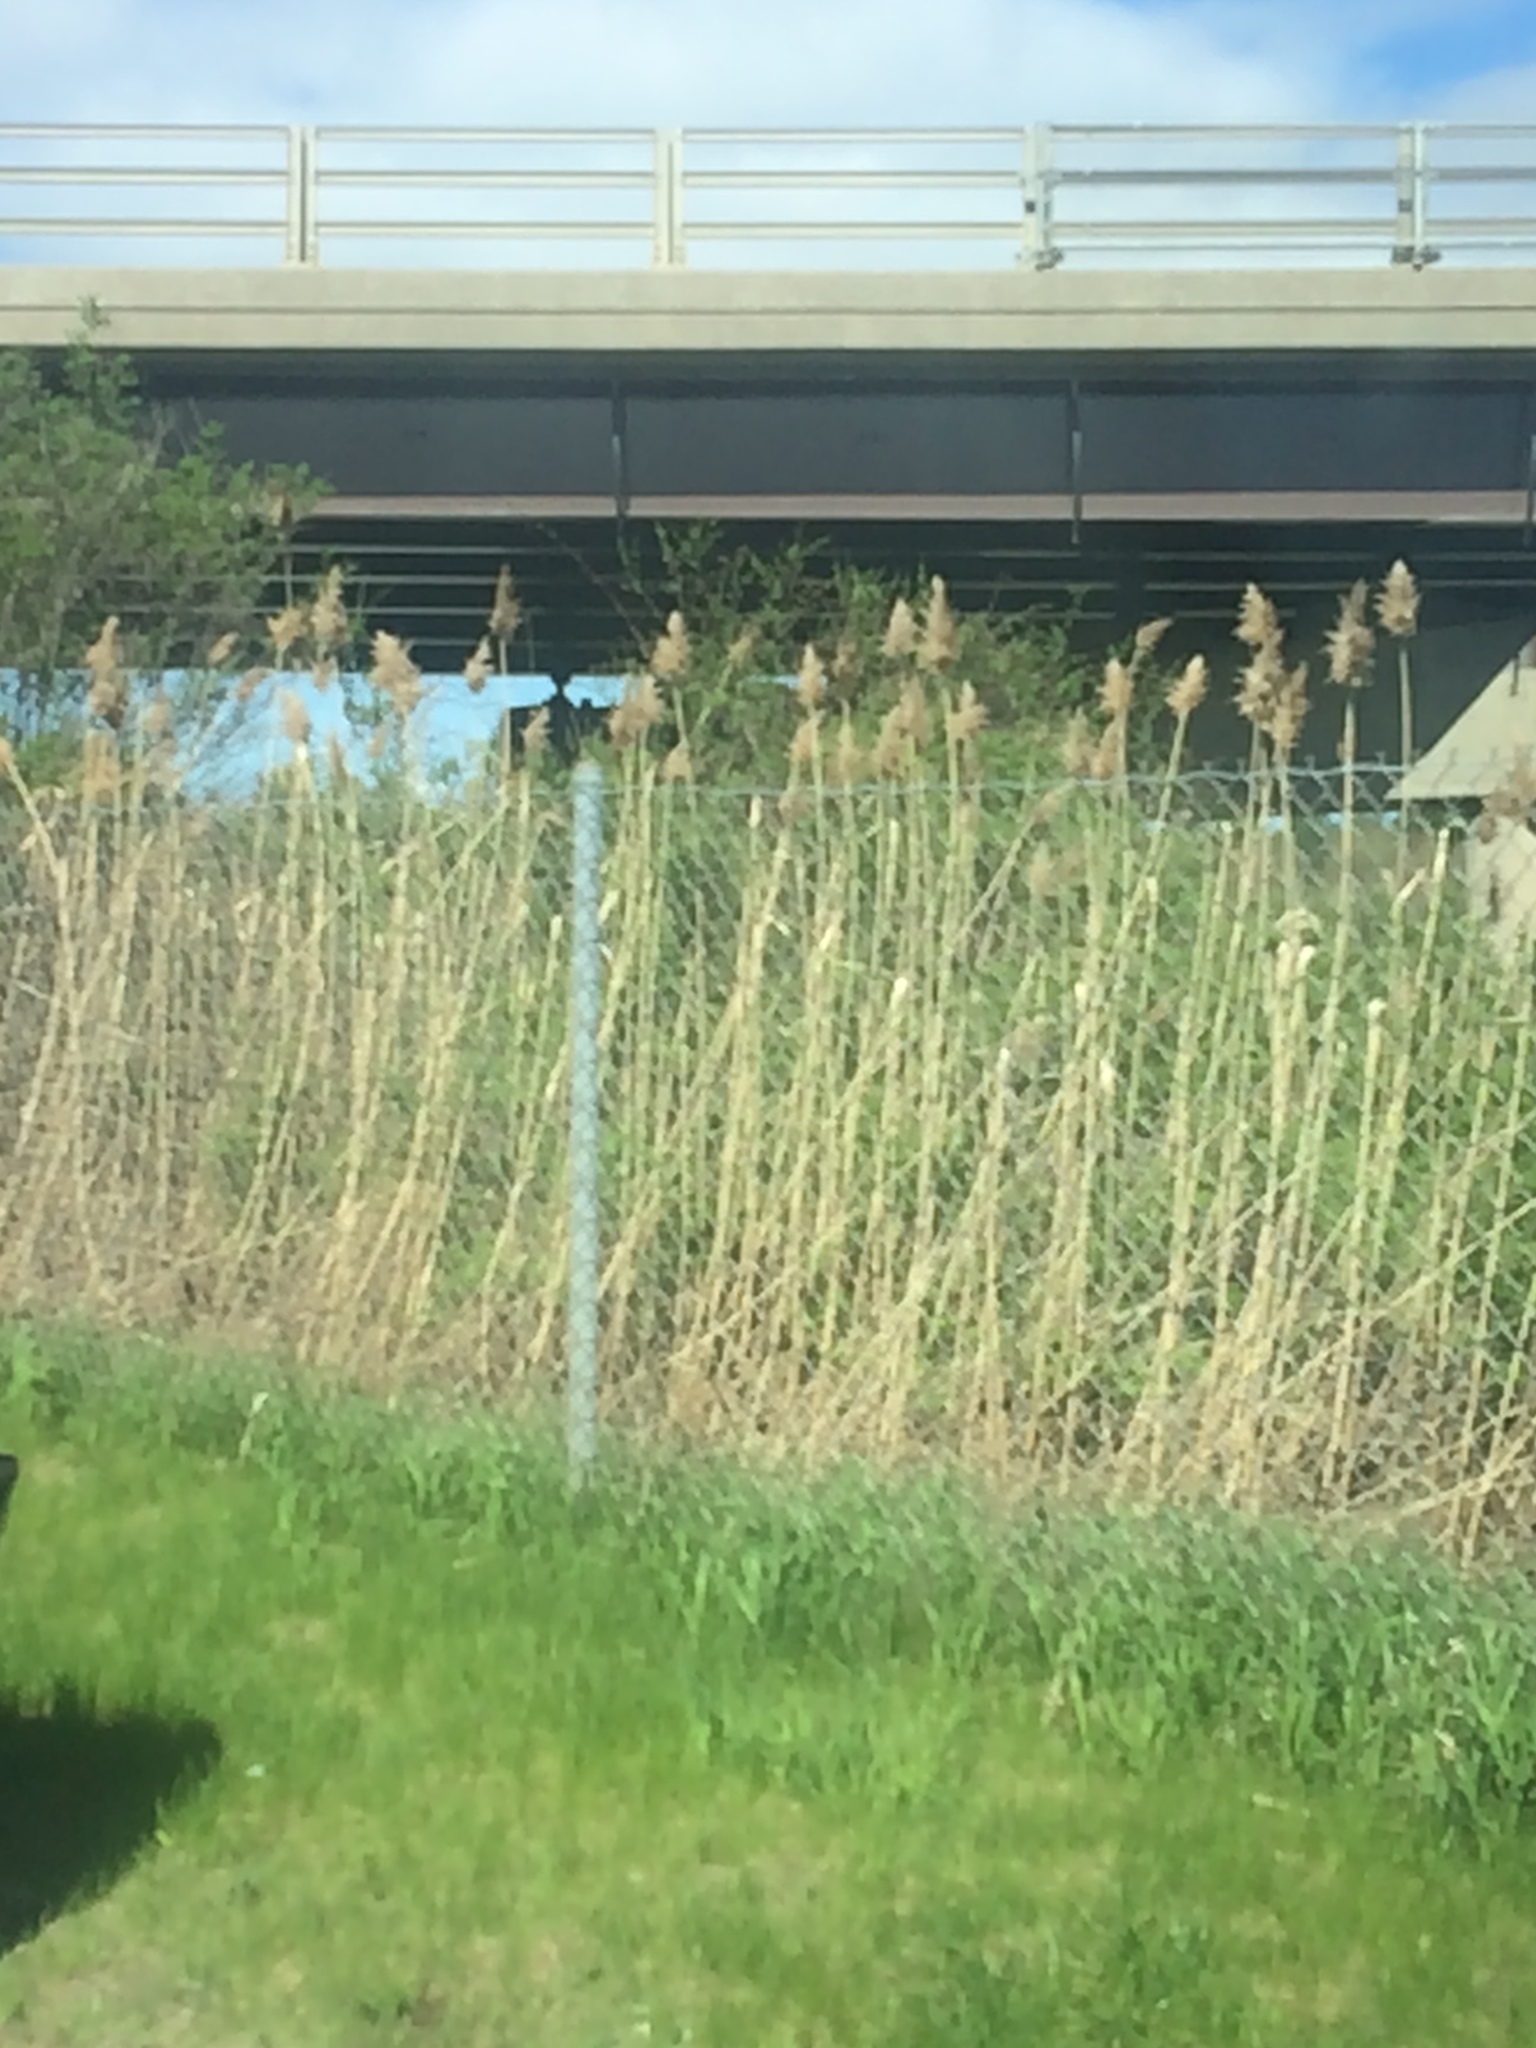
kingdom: Plantae
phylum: Tracheophyta
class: Liliopsida
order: Poales
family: Poaceae
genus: Phragmites
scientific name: Phragmites australis
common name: Common reed
